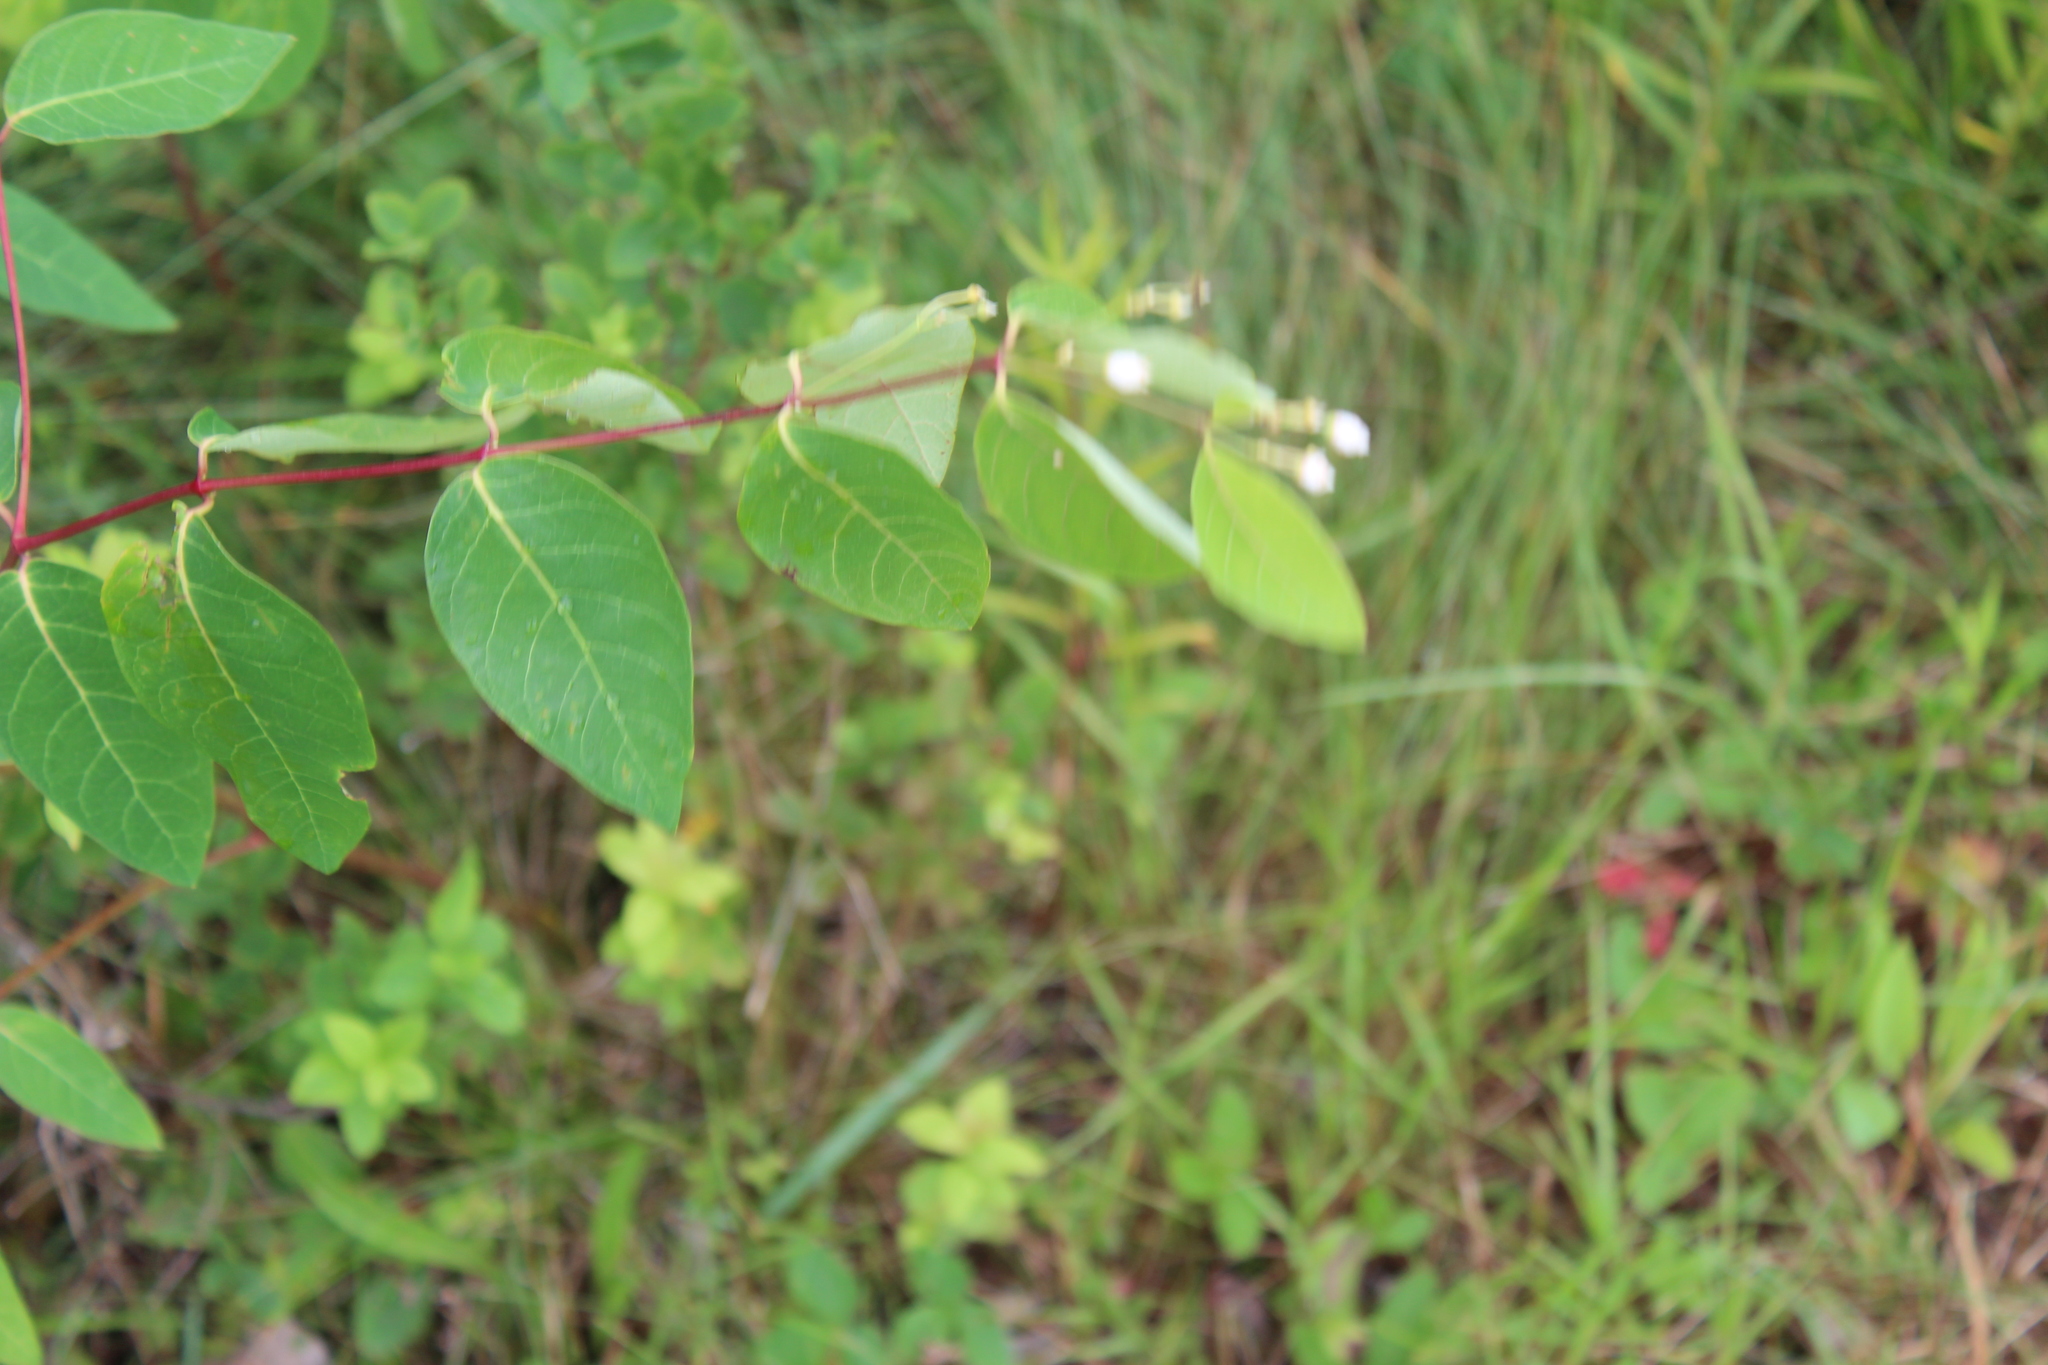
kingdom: Plantae
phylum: Tracheophyta
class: Magnoliopsida
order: Gentianales
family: Apocynaceae
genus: Apocynum
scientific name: Apocynum androsaemifolium
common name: Spreading dogbane
